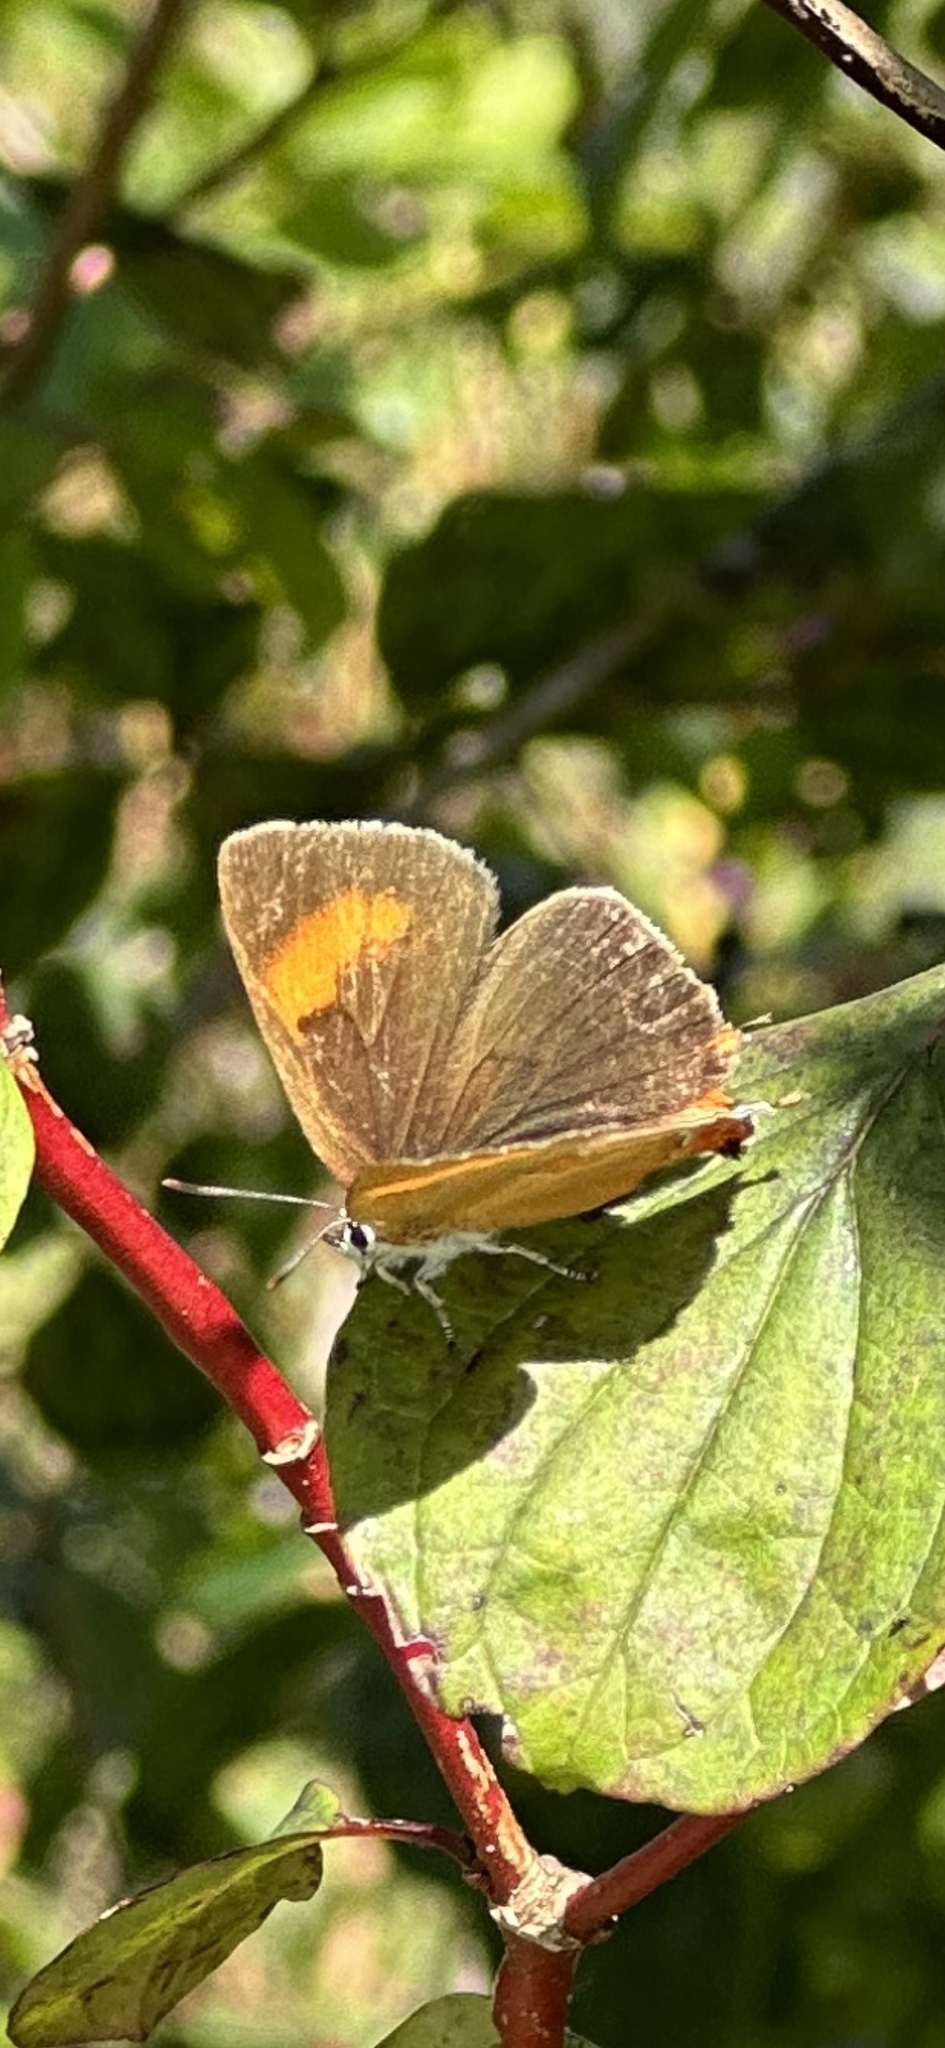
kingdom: Animalia
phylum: Arthropoda
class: Insecta
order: Lepidoptera
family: Lycaenidae
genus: Thecla
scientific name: Thecla betulae
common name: Brown hairstreak
